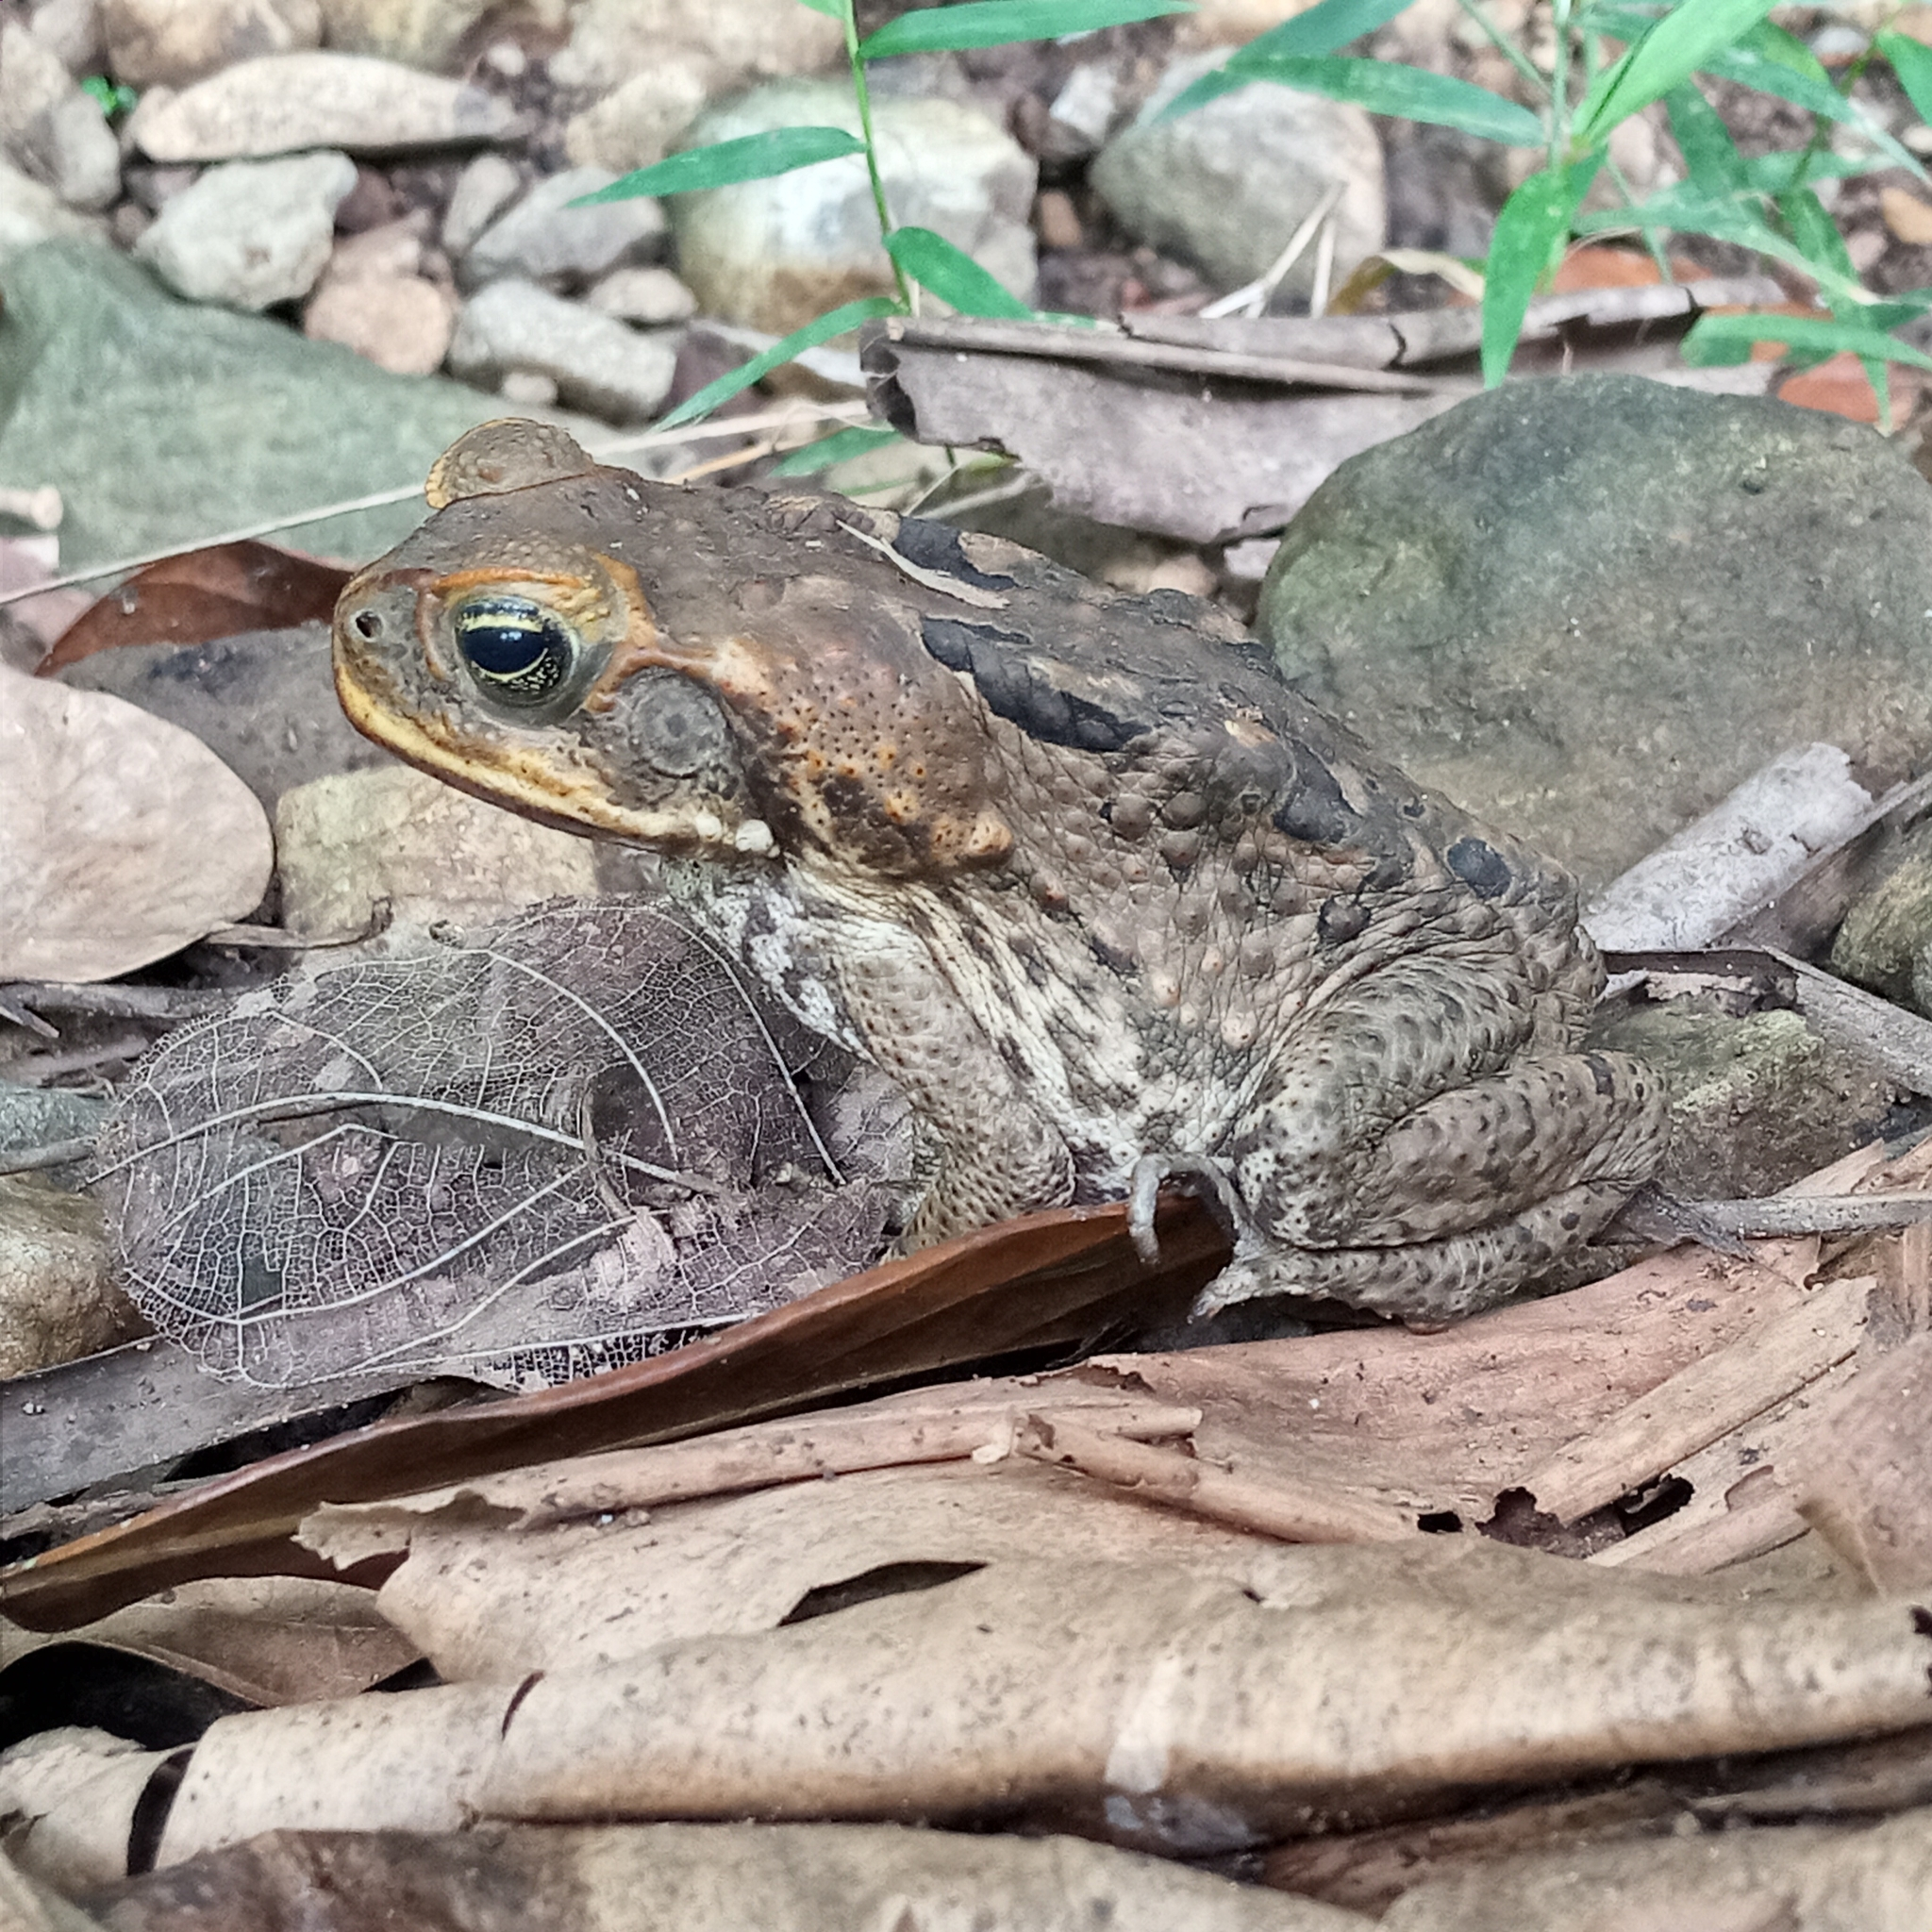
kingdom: Animalia
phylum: Chordata
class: Amphibia
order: Anura
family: Bufonidae
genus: Rhinella
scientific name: Rhinella marina
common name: Cane toad
